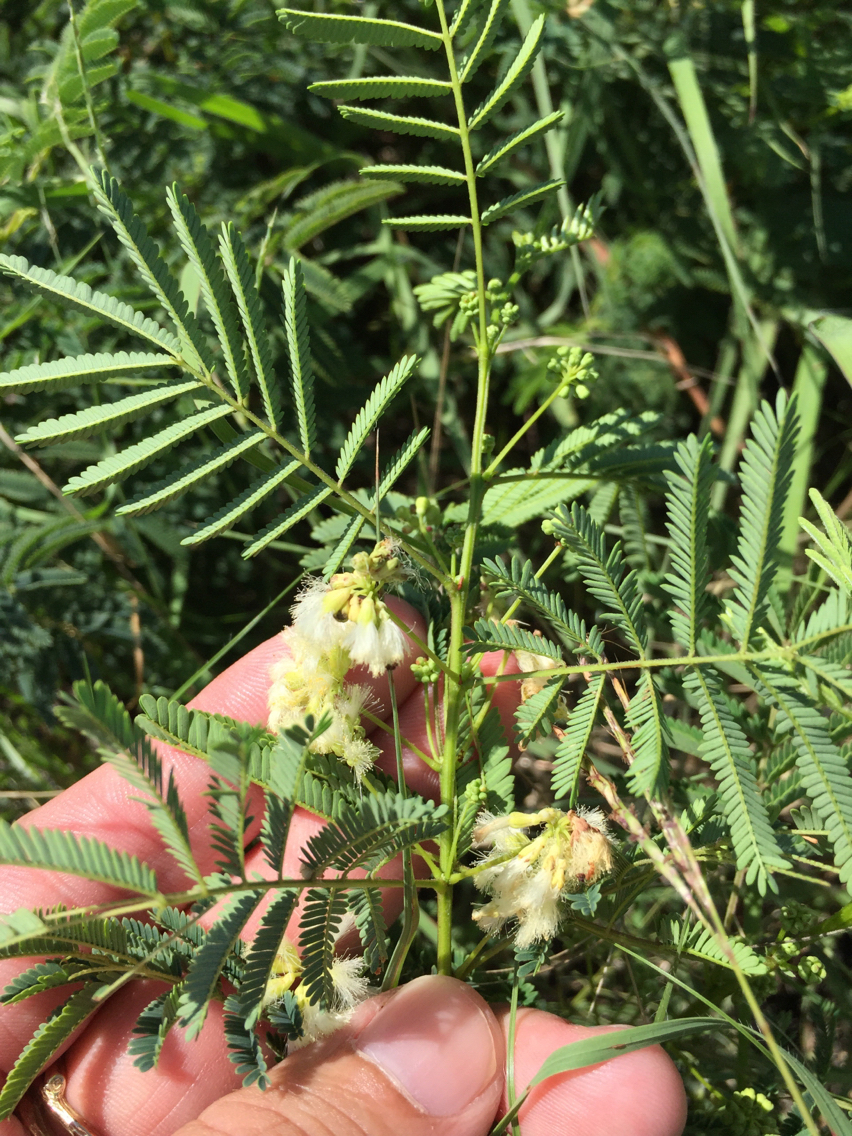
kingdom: Plantae
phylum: Tracheophyta
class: Magnoliopsida
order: Fabales
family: Fabaceae
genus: Acaciella
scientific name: Acaciella angustissima
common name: Prairie acacia
